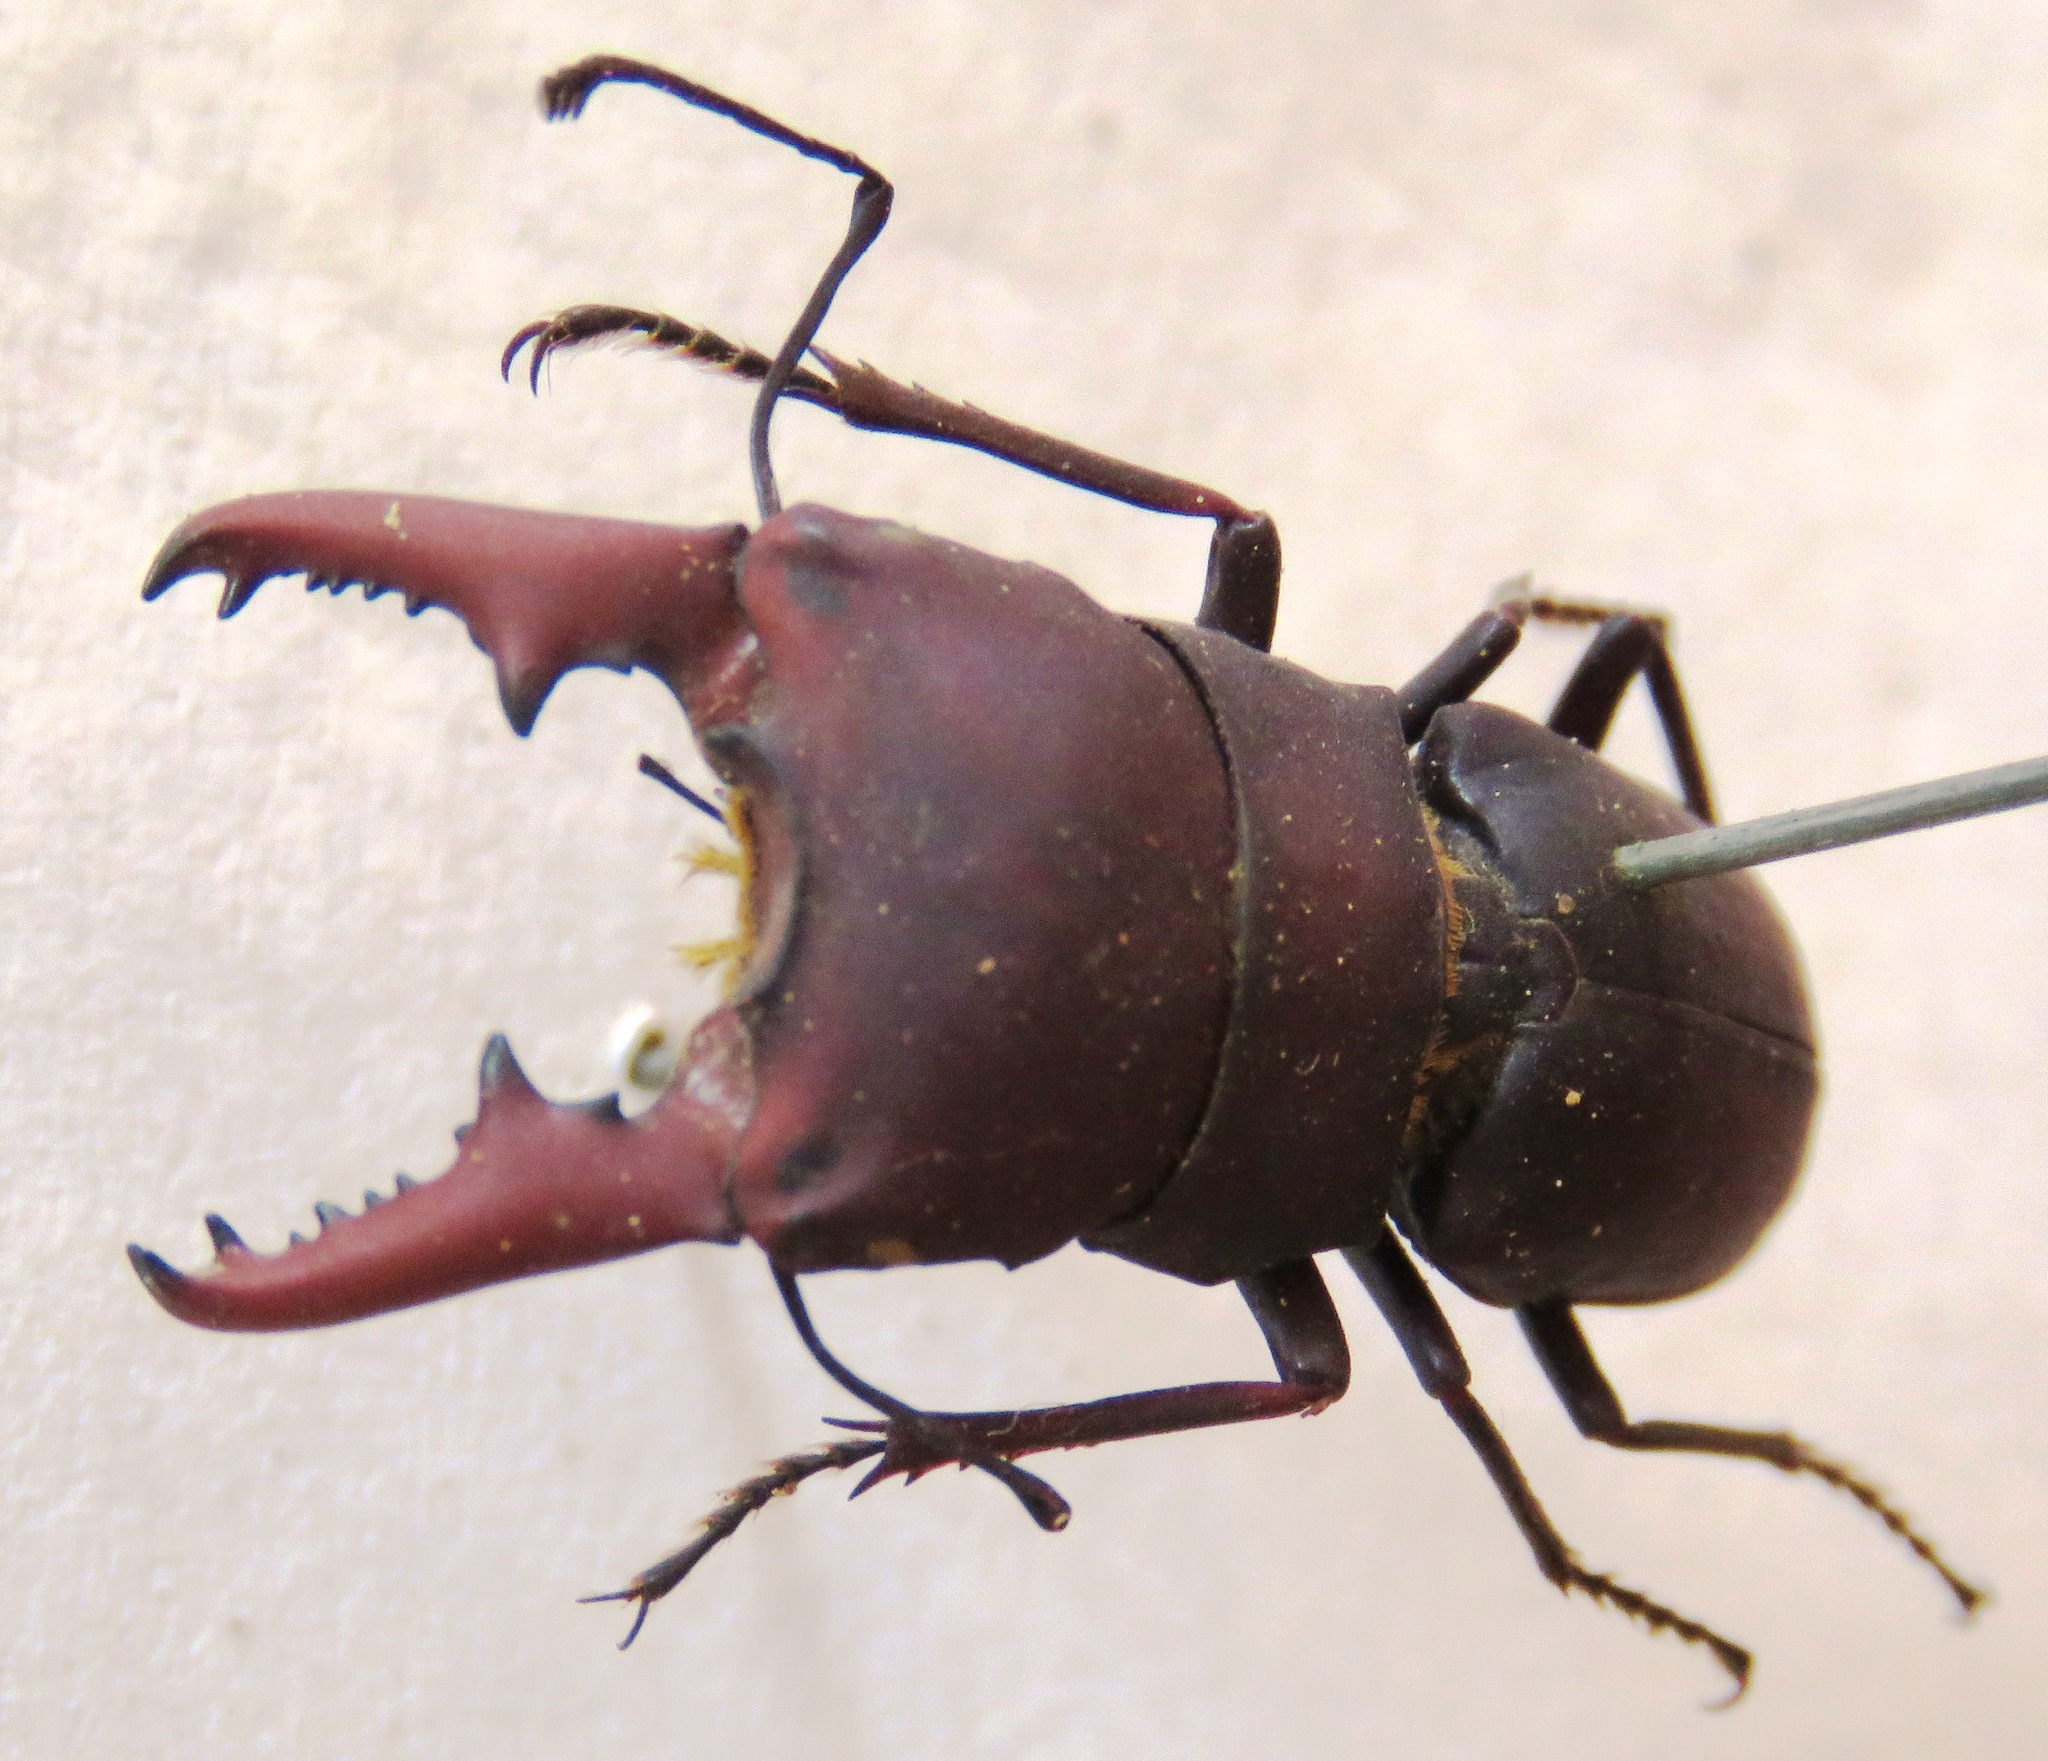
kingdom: Animalia
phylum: Arthropoda
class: Insecta
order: Coleoptera
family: Lucanidae
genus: Macrocrates
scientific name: Macrocrates galantorum
